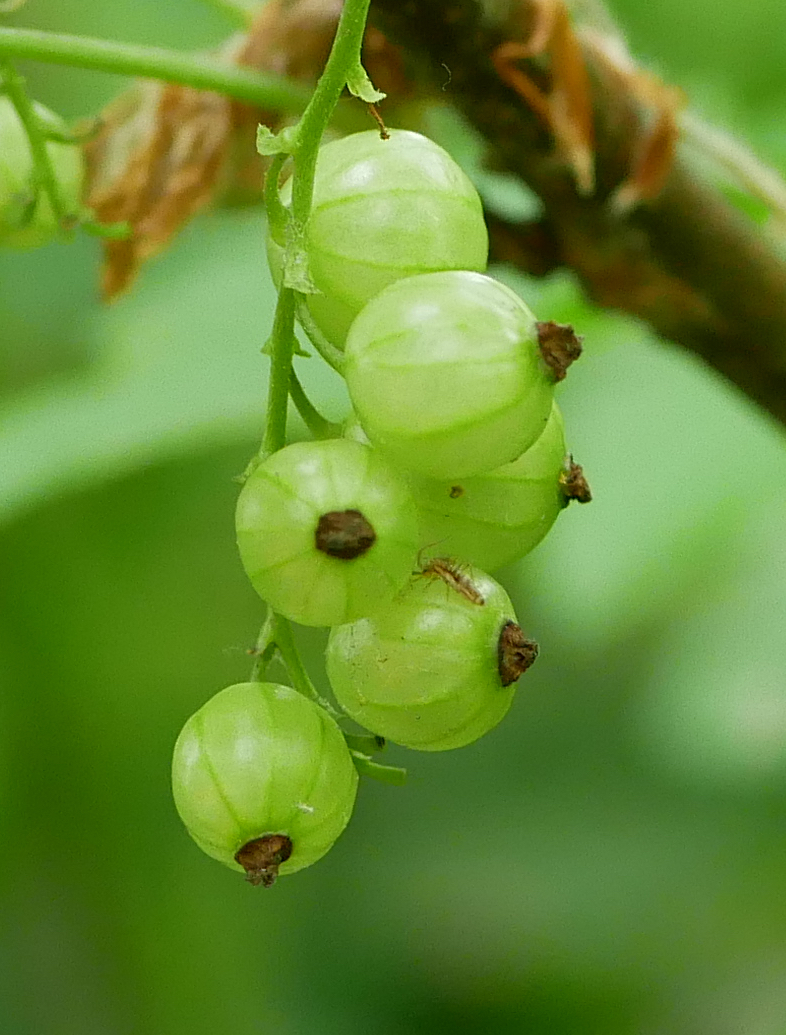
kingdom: Plantae
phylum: Tracheophyta
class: Magnoliopsida
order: Saxifragales
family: Grossulariaceae
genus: Ribes
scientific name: Ribes rubrum
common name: Red currant
